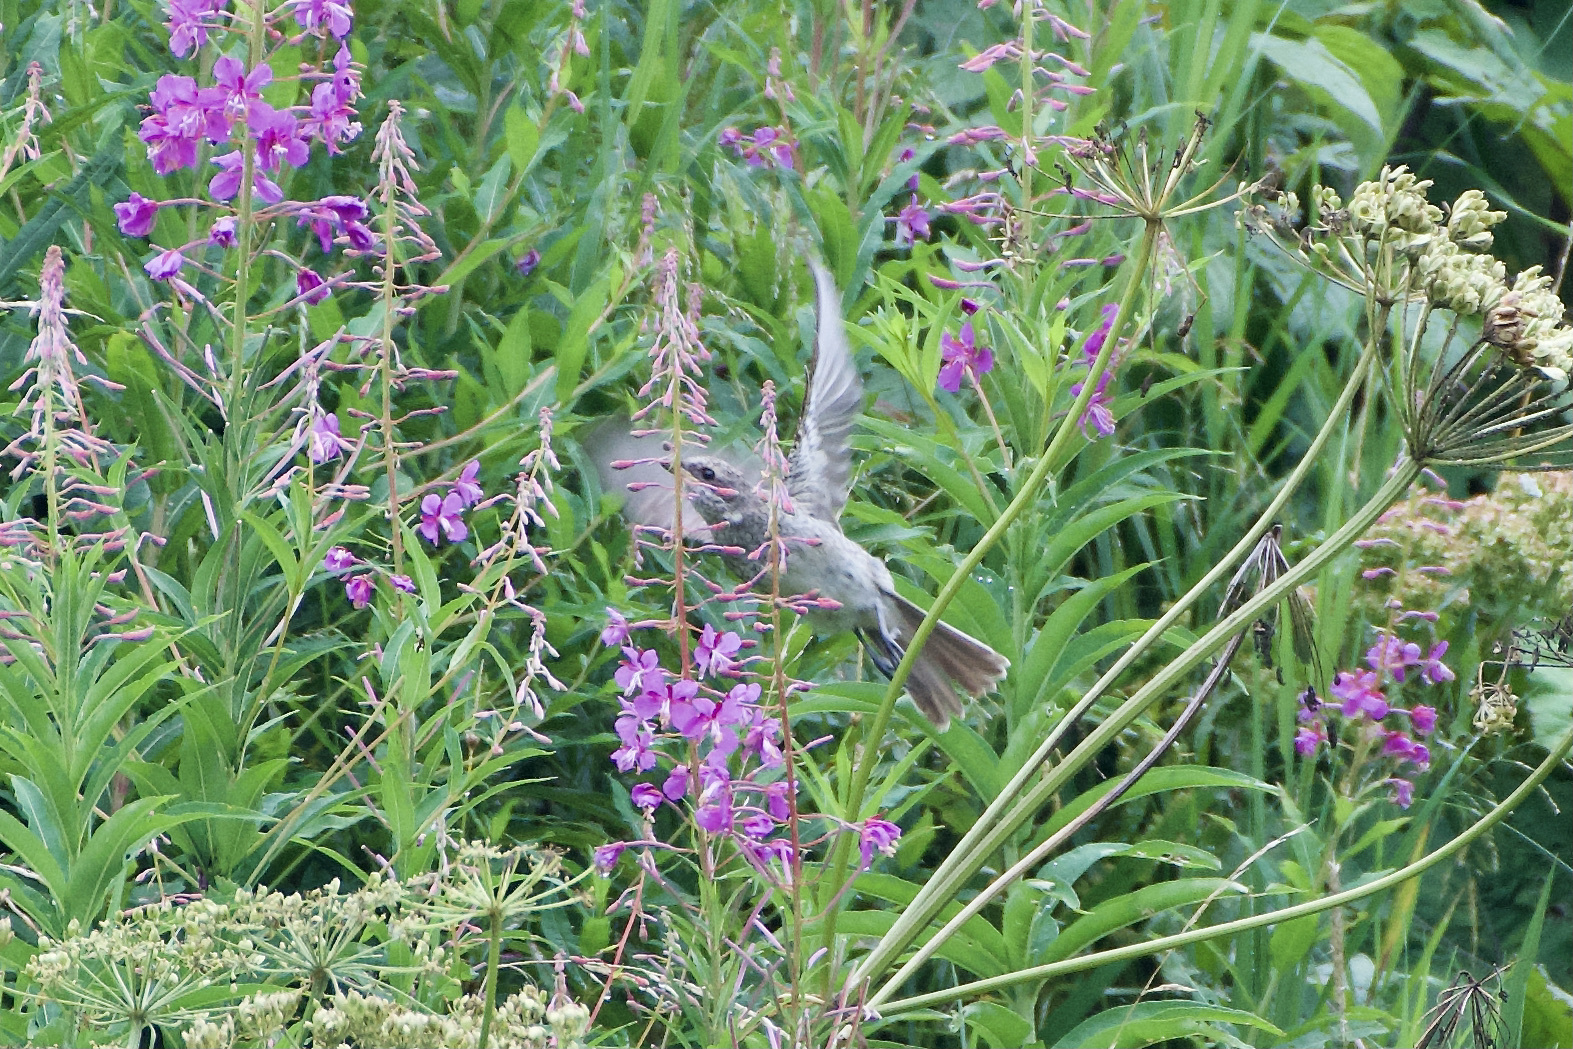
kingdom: Animalia
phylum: Chordata
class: Aves
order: Passeriformes
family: Laniidae
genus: Lanius
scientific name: Lanius collurio
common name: Red-backed shrike
